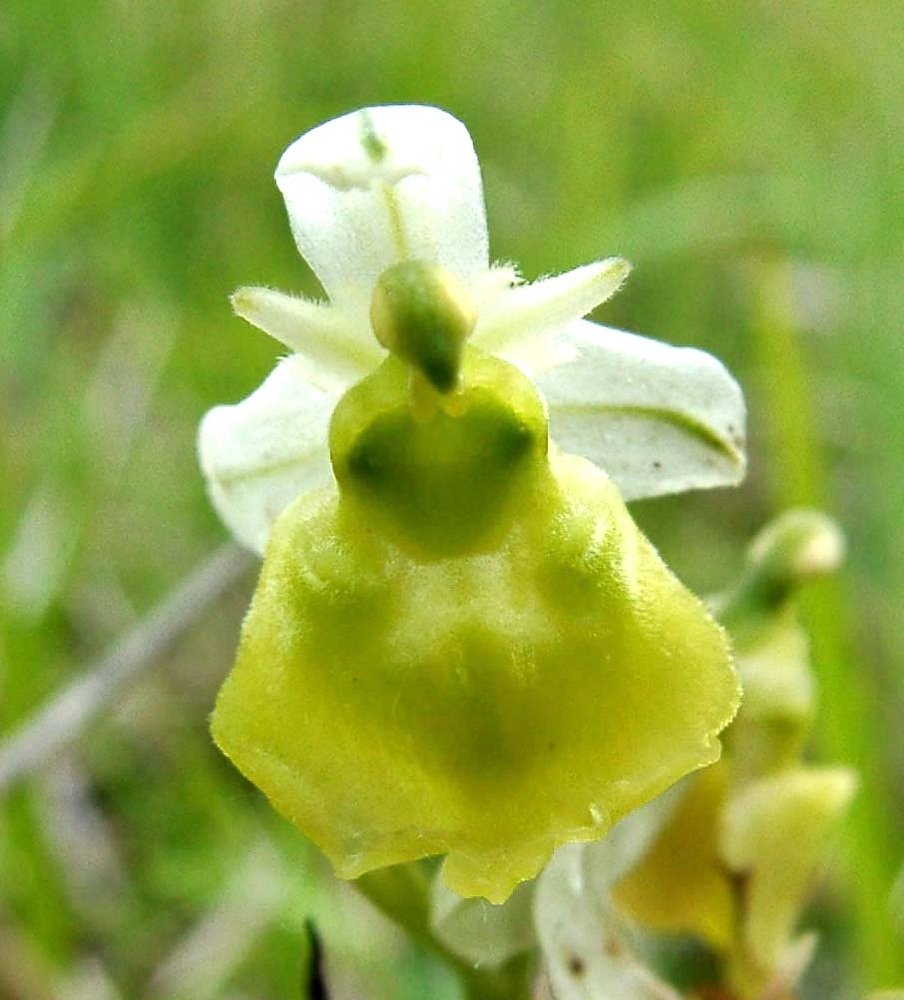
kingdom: Plantae
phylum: Tracheophyta
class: Liliopsida
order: Asparagales
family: Orchidaceae
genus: Ophrys
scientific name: Ophrys holosericea
